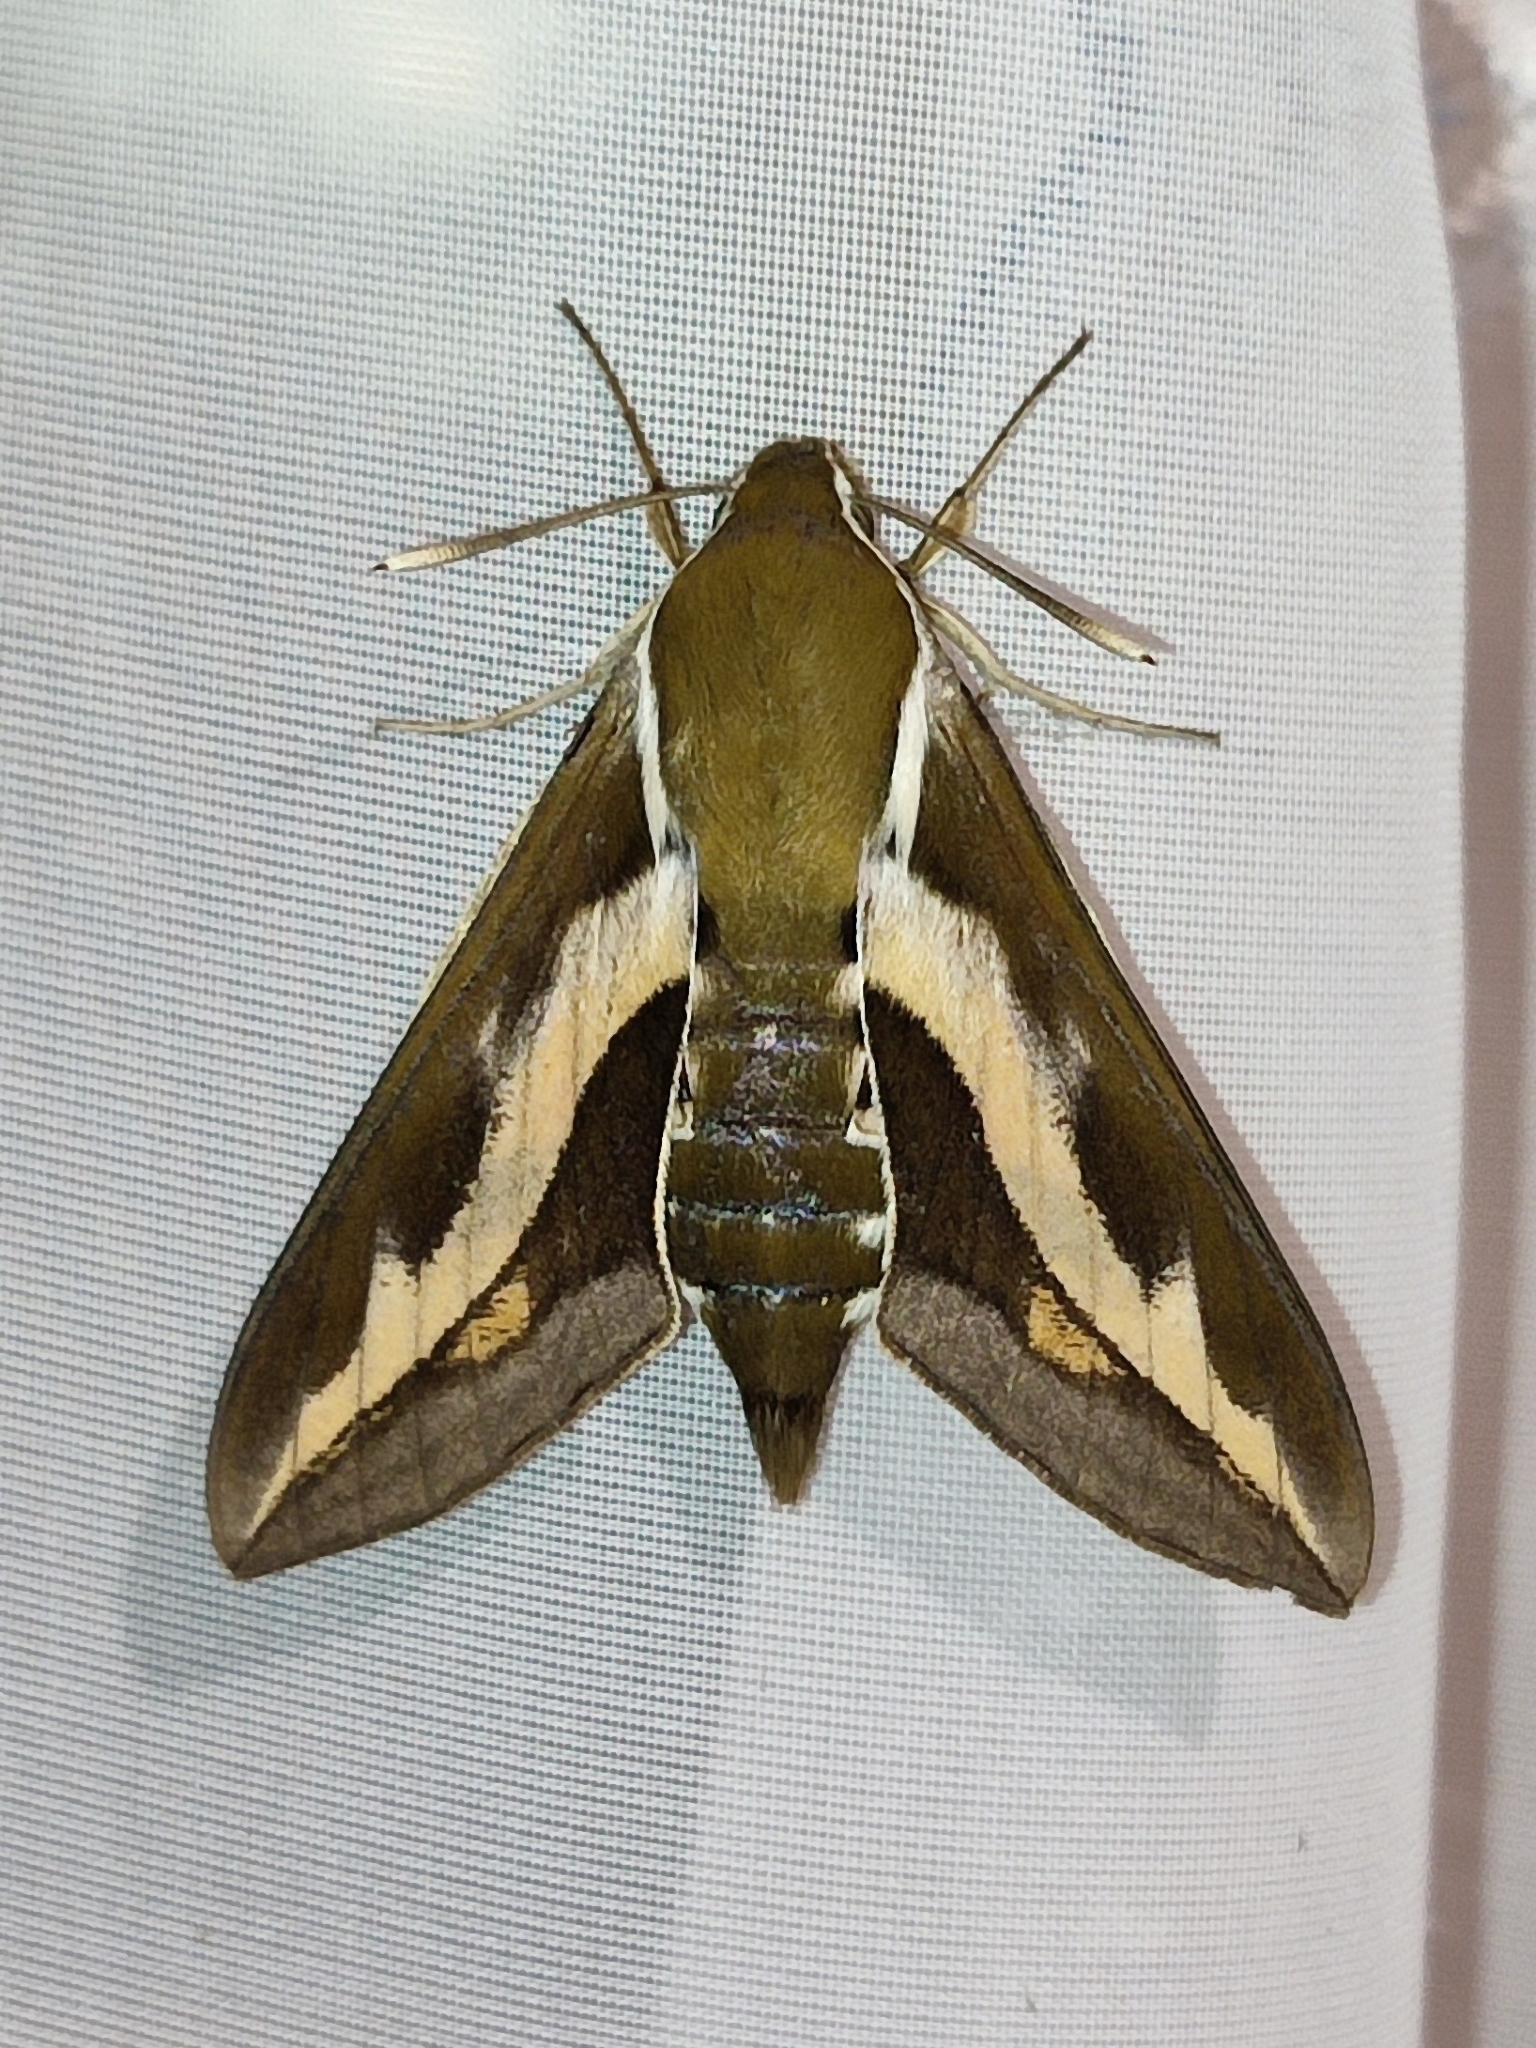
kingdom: Animalia
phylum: Arthropoda
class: Insecta
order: Lepidoptera
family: Sphingidae
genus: Hyles
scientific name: Hyles gallii
